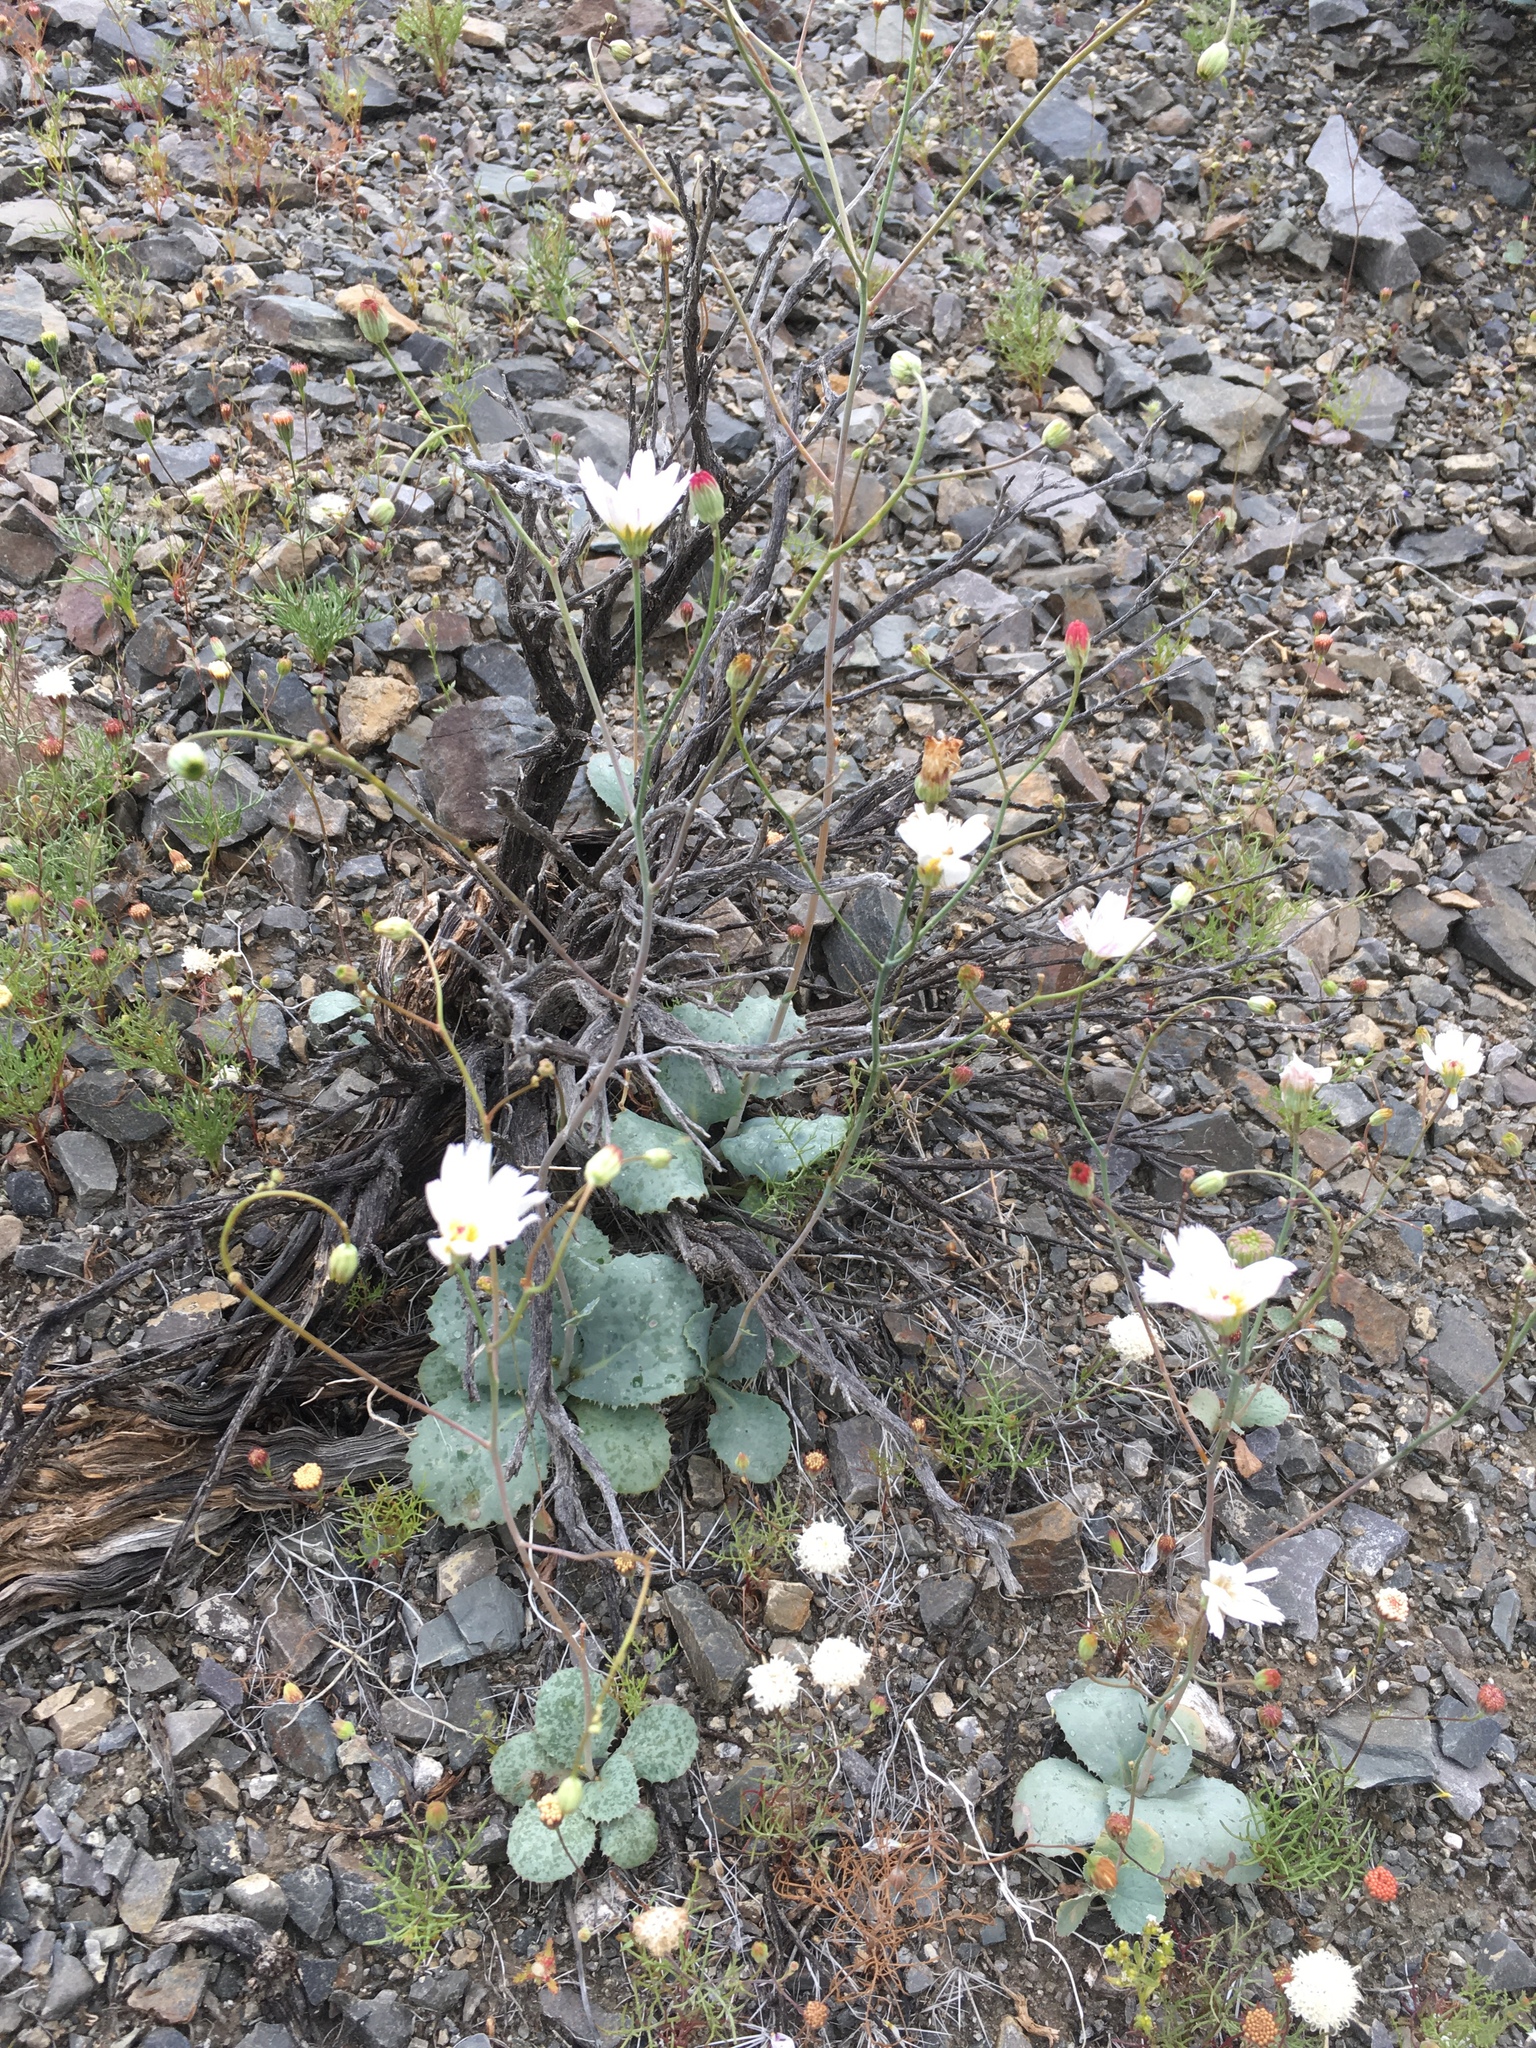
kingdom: Plantae
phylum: Tracheophyta
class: Magnoliopsida
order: Asterales
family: Asteraceae
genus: Atrichoseris
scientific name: Atrichoseris platyphylla
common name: Tobaccoweed
